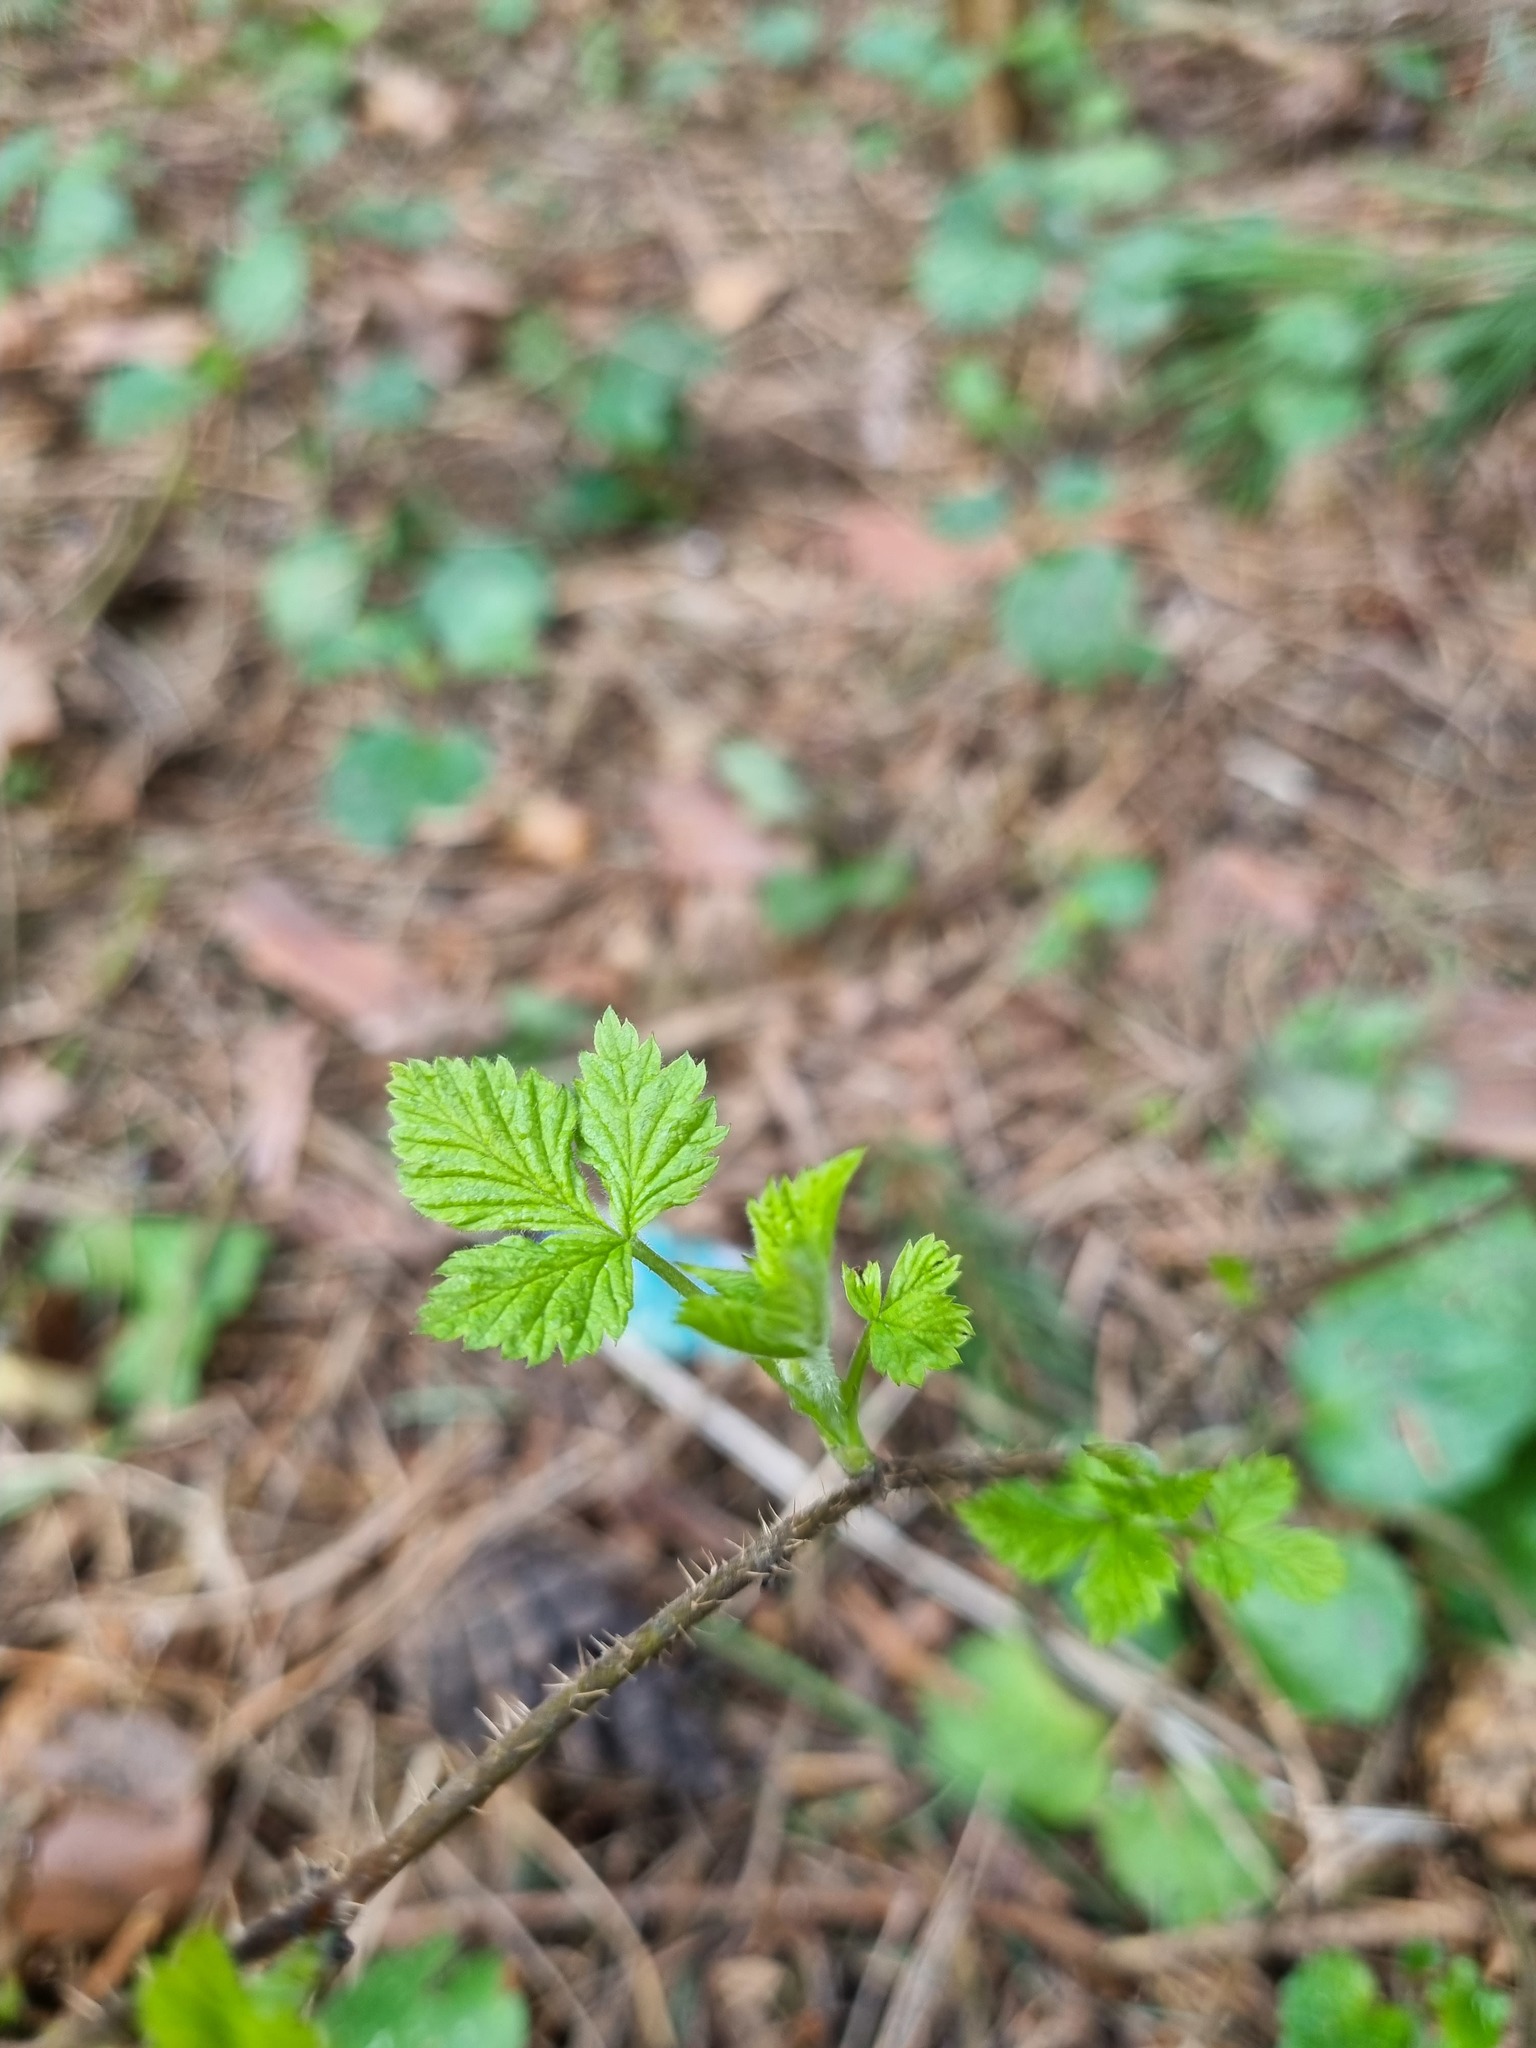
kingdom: Plantae
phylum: Tracheophyta
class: Magnoliopsida
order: Rosales
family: Rosaceae
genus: Rubus
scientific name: Rubus idaeus
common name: Raspberry
